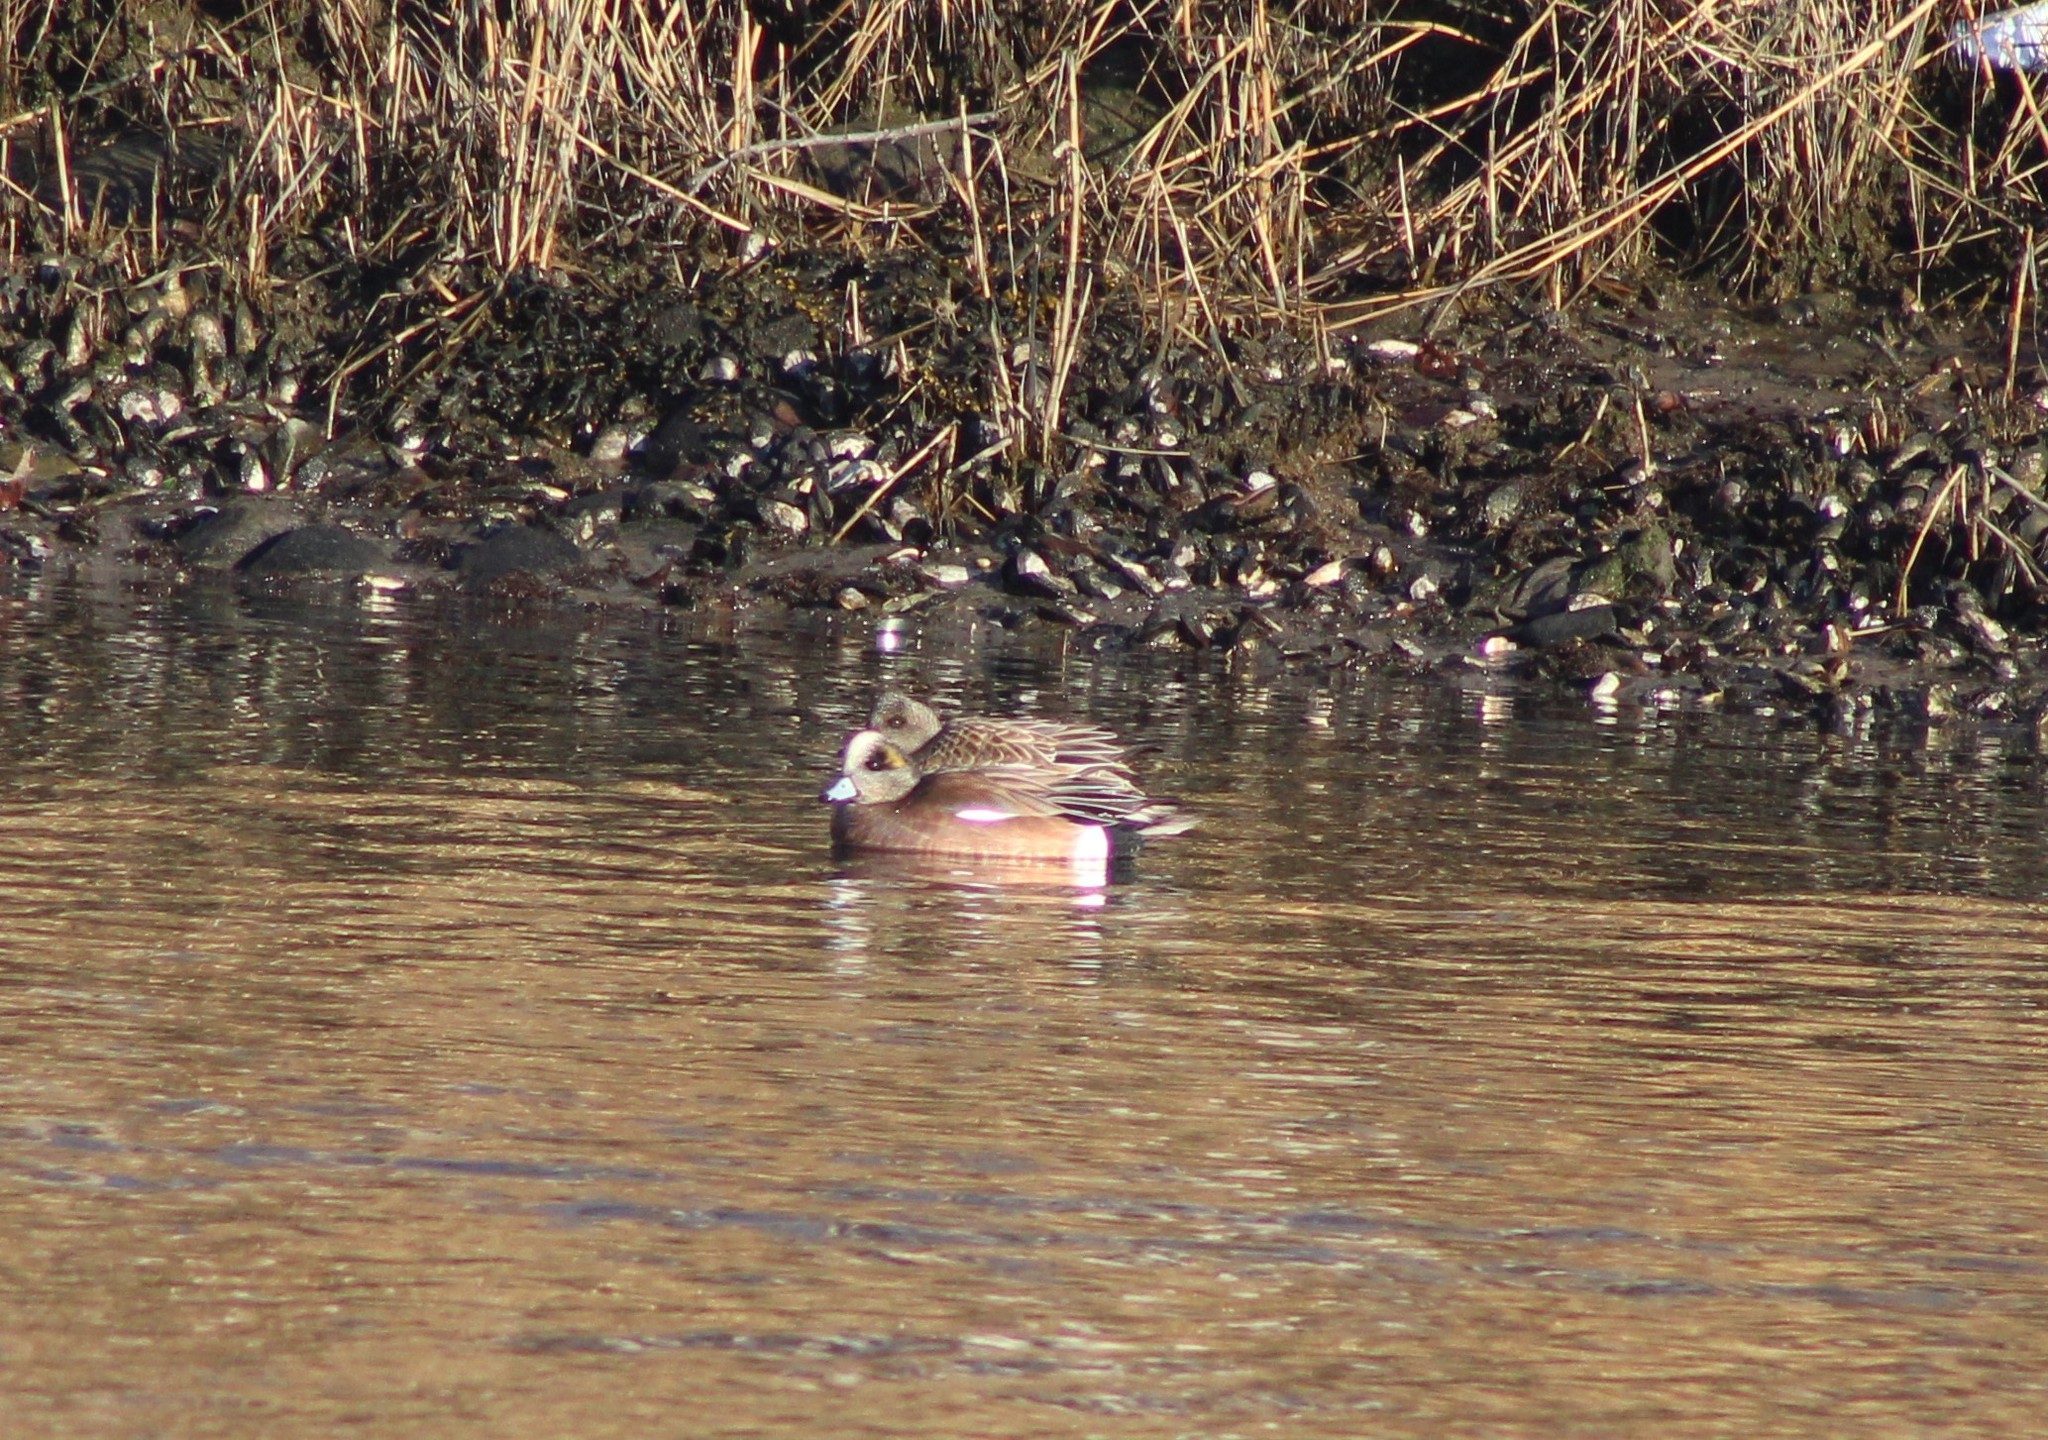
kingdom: Animalia
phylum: Chordata
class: Aves
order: Anseriformes
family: Anatidae
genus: Mareca
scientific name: Mareca americana
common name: American wigeon
